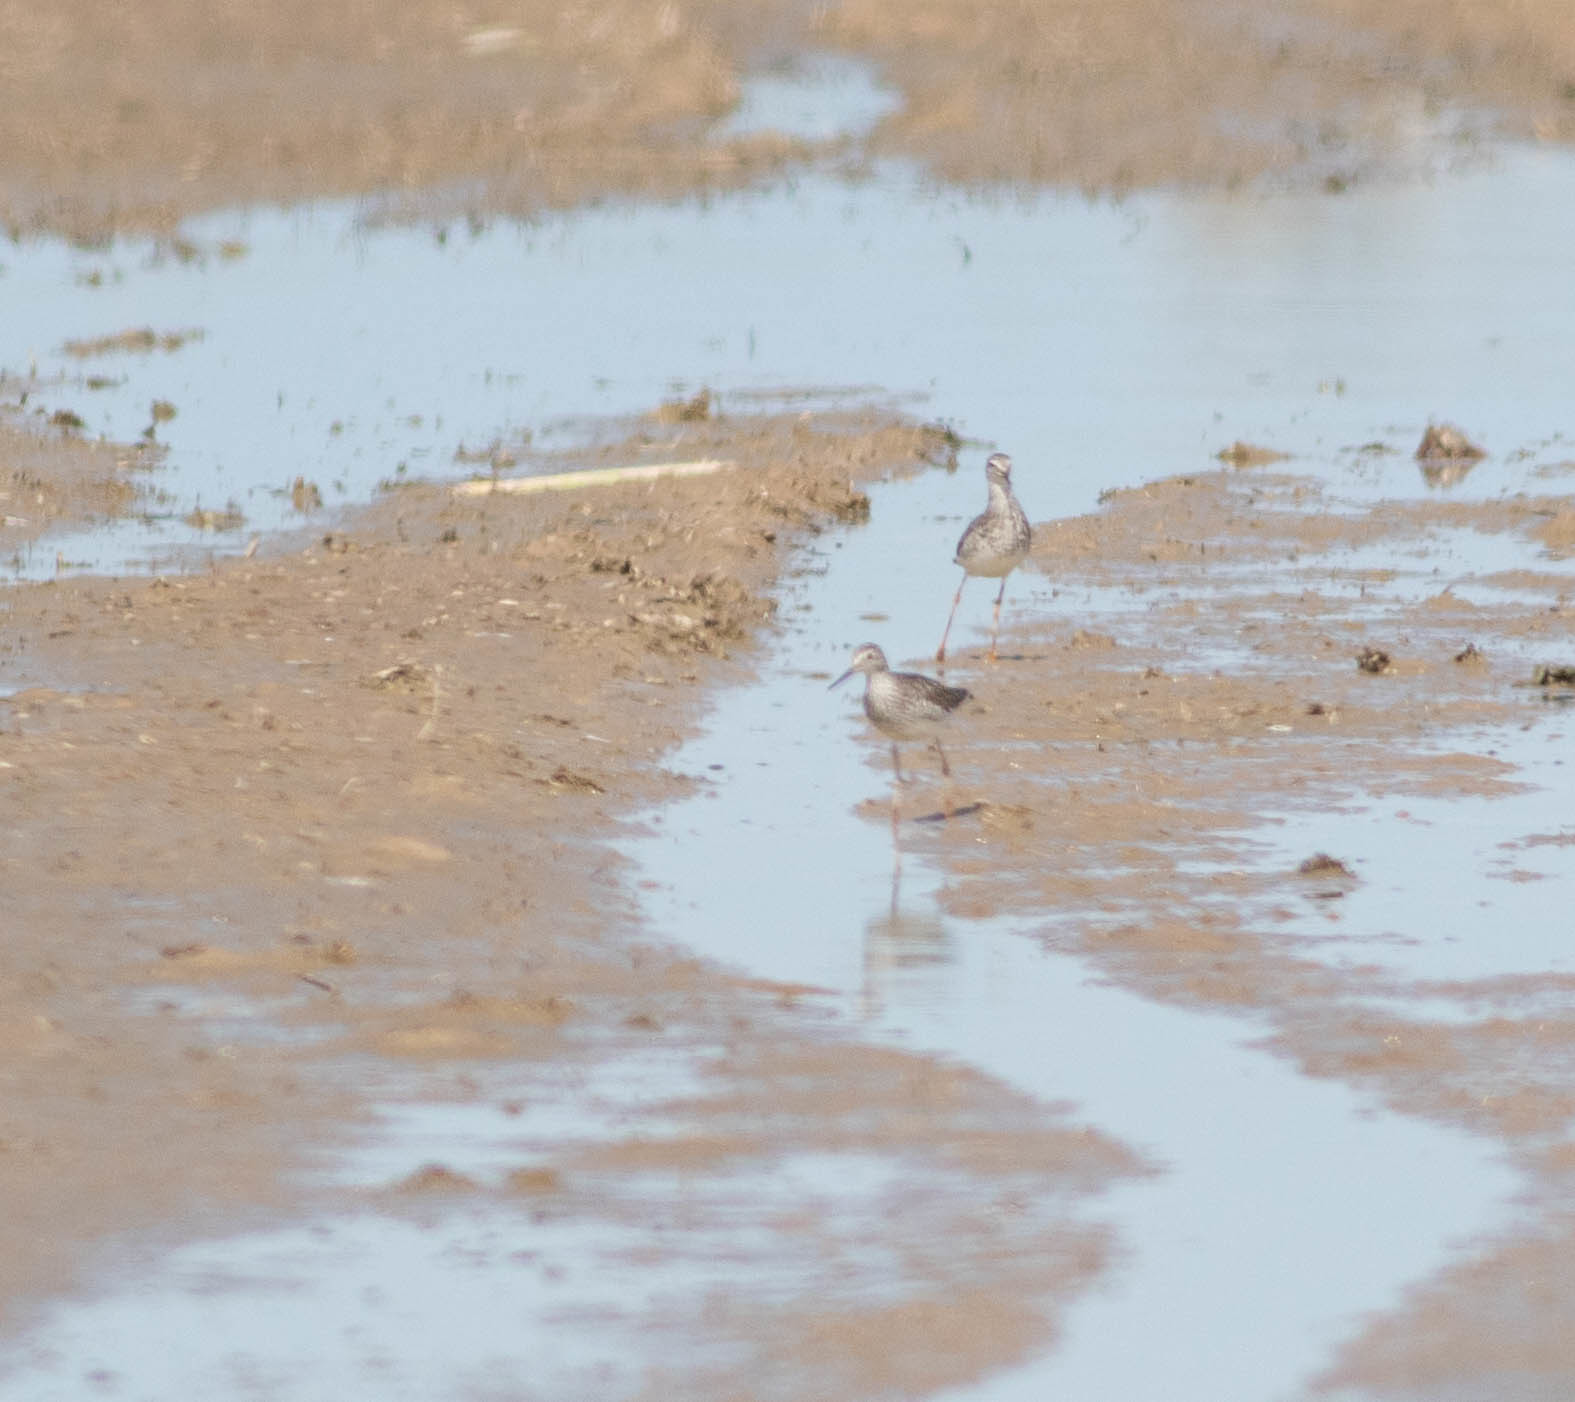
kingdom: Animalia
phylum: Chordata
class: Aves
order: Charadriiformes
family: Scolopacidae
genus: Tringa
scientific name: Tringa flavipes
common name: Lesser yellowlegs
